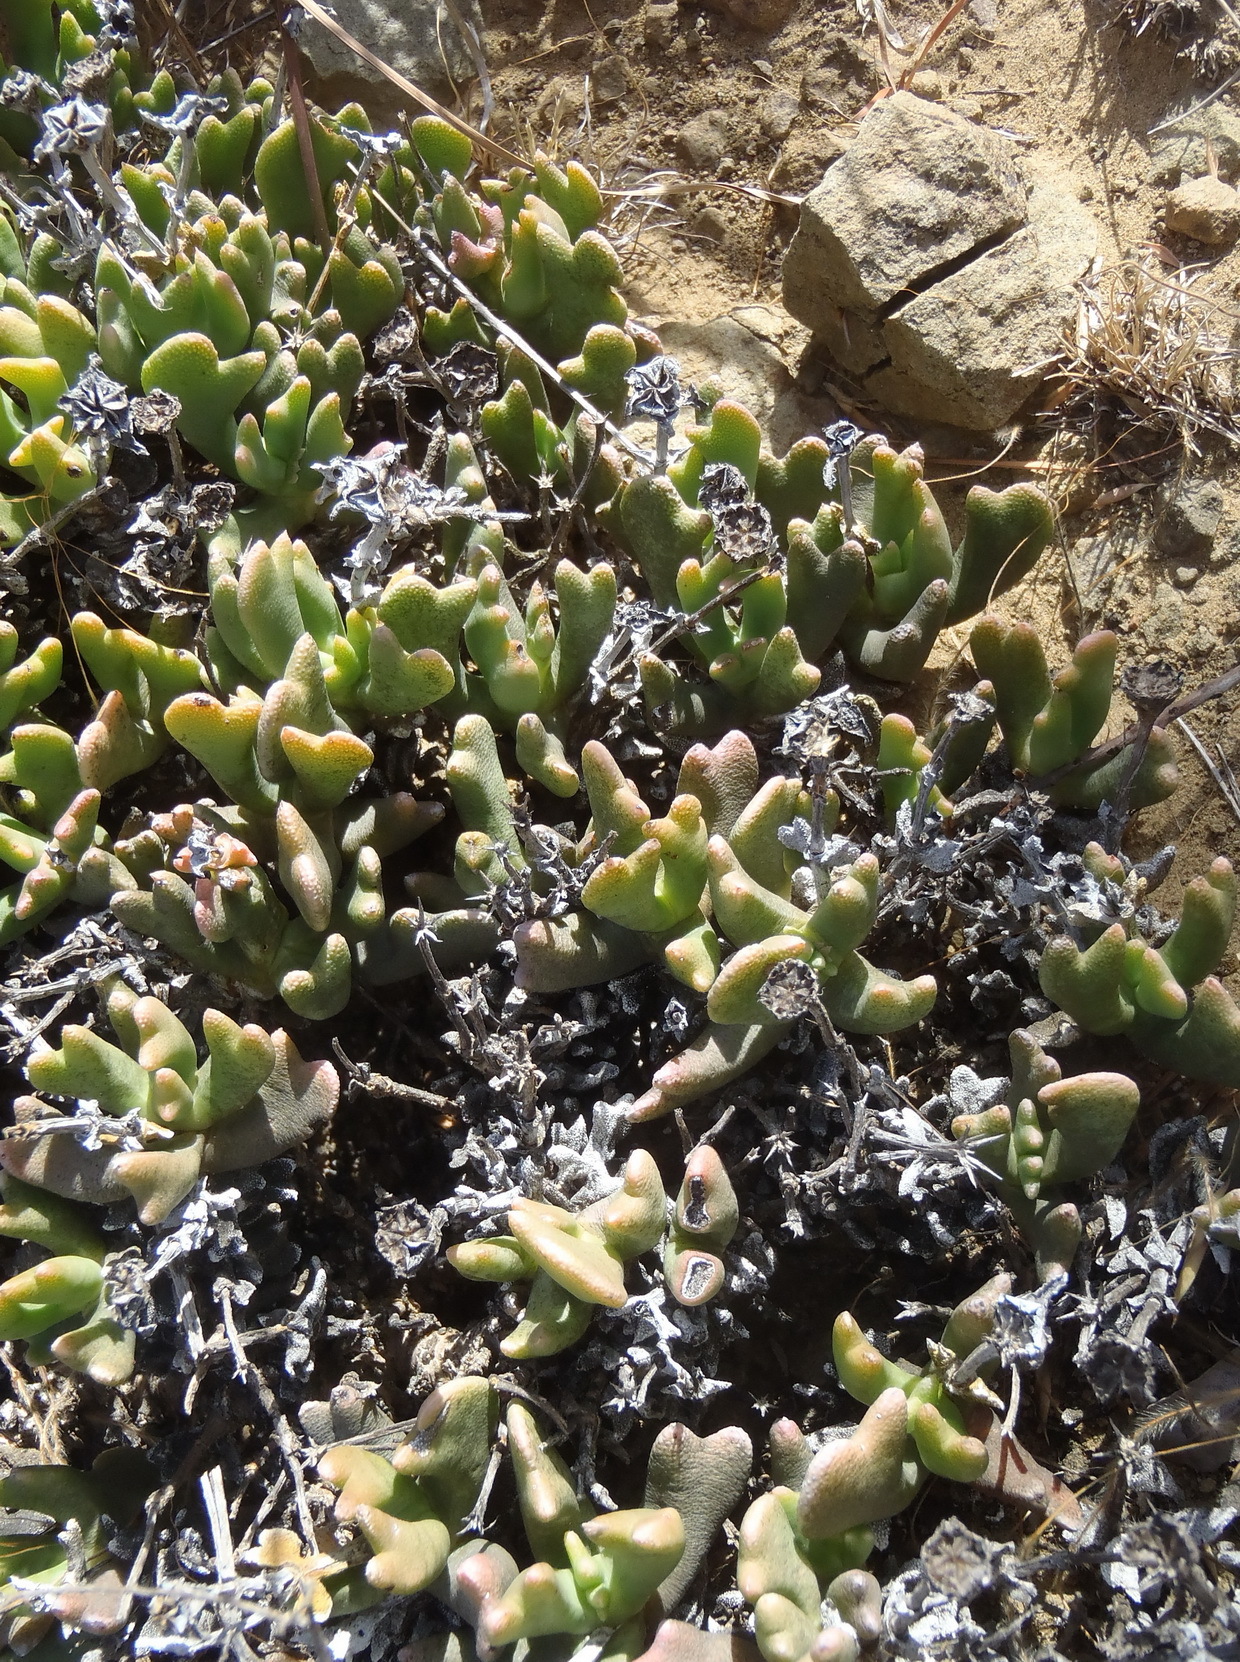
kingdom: Plantae
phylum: Tracheophyta
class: Magnoliopsida
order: Caryophyllales
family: Aizoaceae
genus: Dracophilus
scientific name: Dracophilus Rhombophyllum dolabriforme
